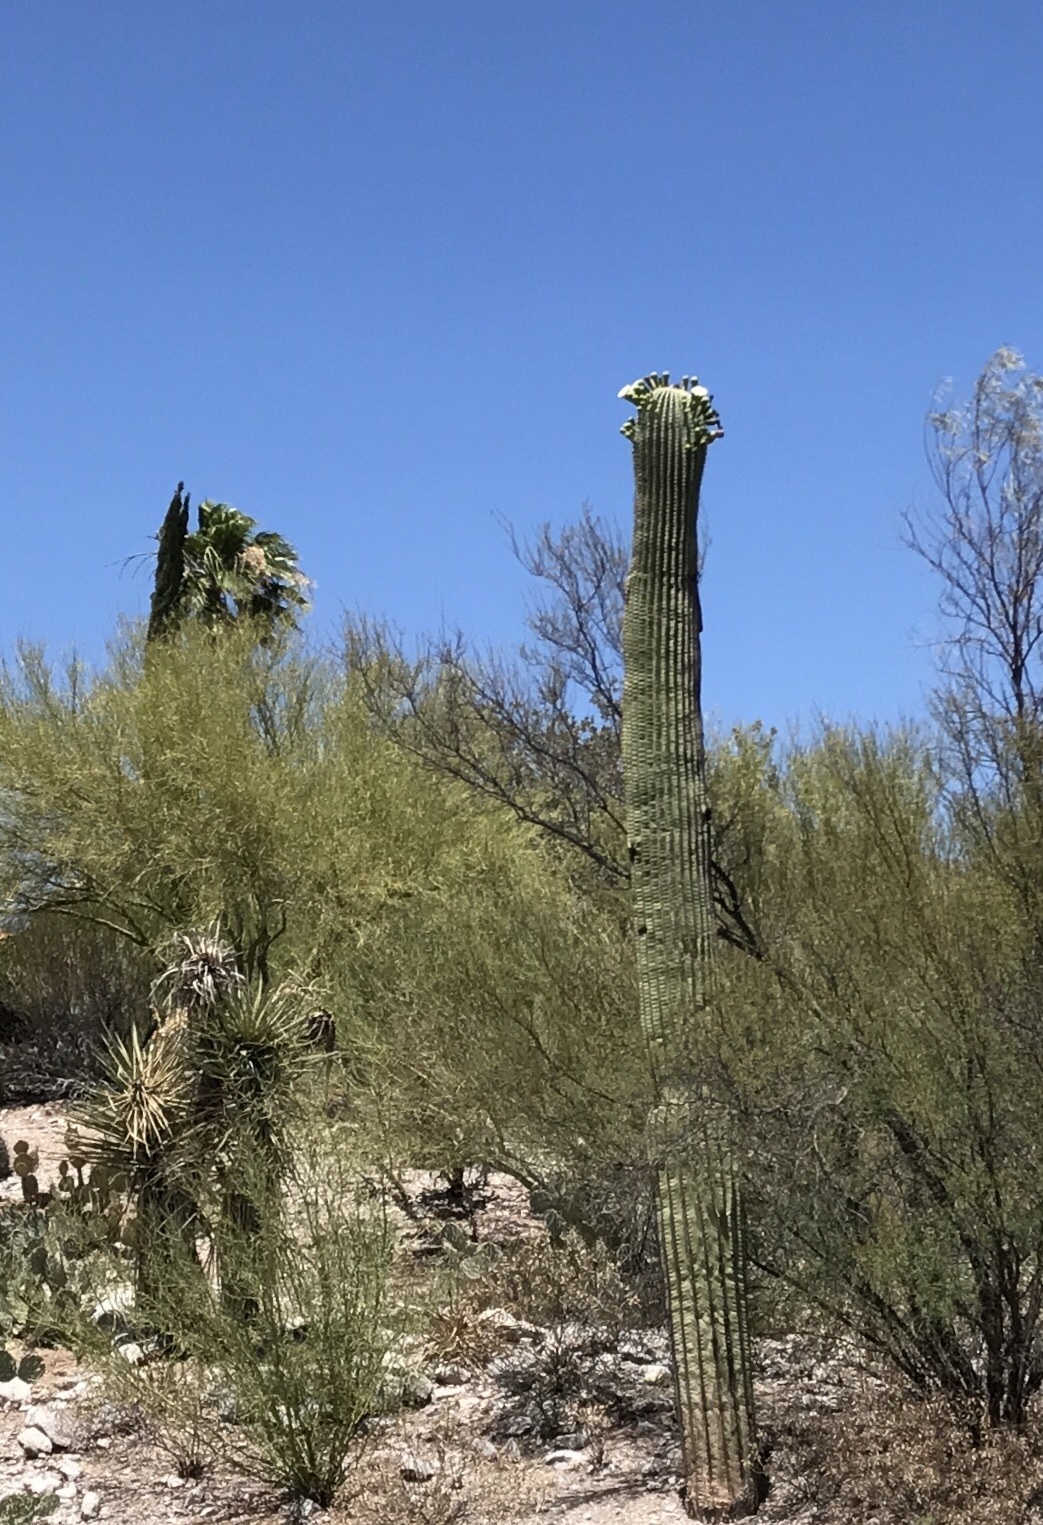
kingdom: Plantae
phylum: Tracheophyta
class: Magnoliopsida
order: Caryophyllales
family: Cactaceae
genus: Carnegiea
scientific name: Carnegiea gigantea
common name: Saguaro
